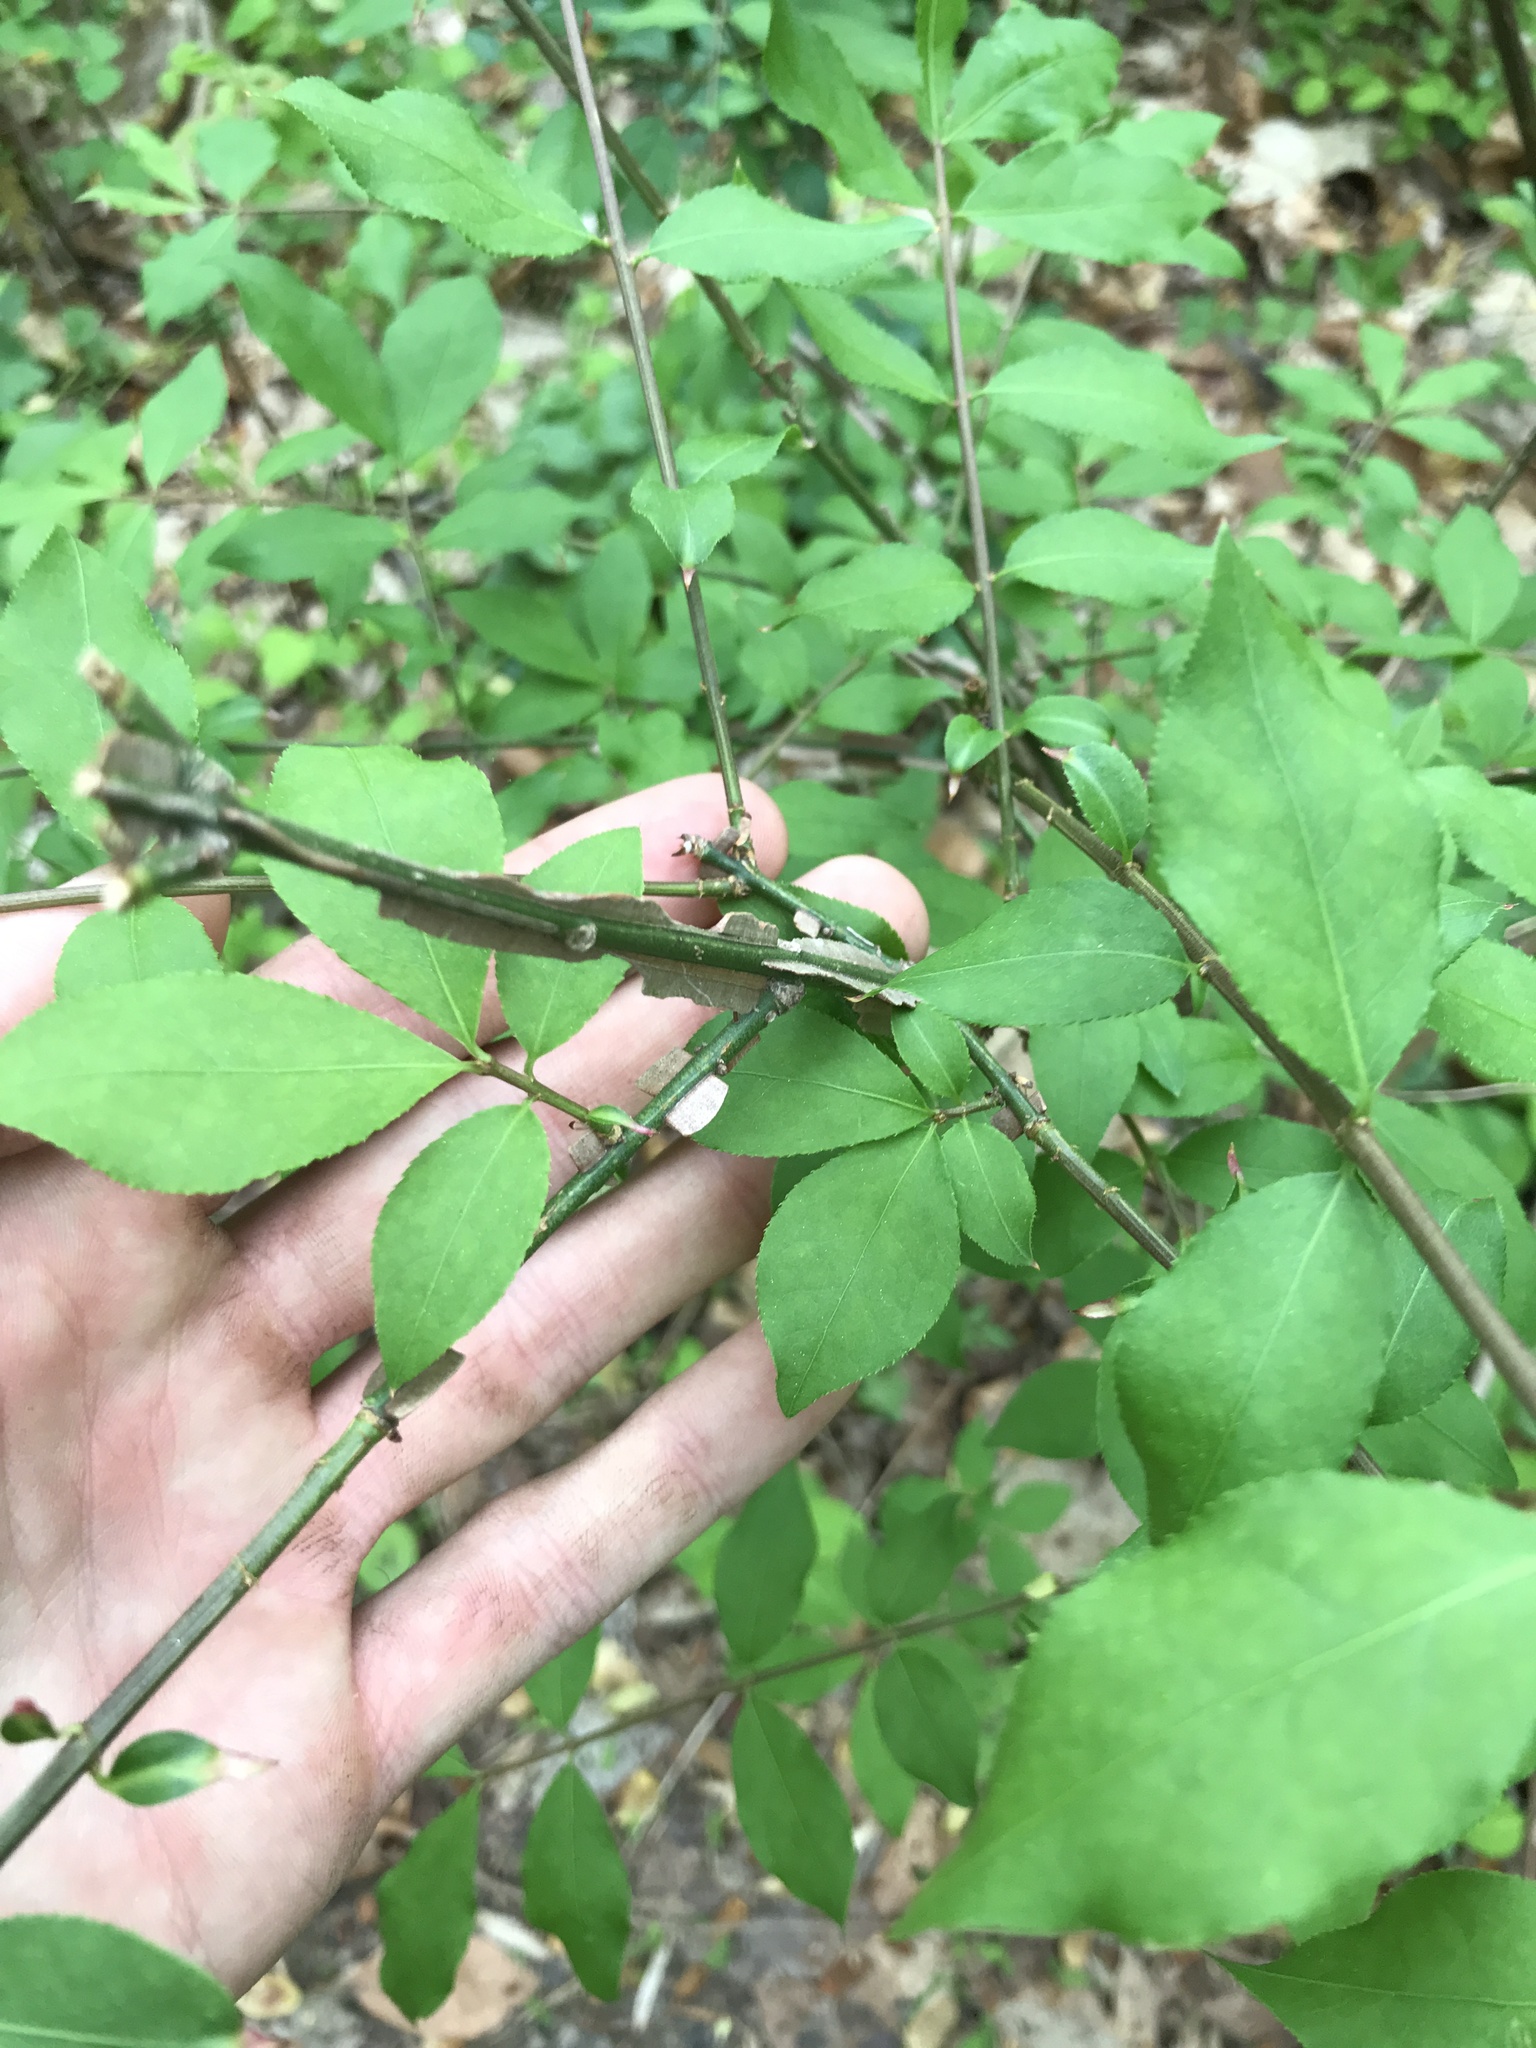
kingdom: Plantae
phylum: Tracheophyta
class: Magnoliopsida
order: Celastrales
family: Celastraceae
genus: Euonymus
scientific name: Euonymus alatus
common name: Winged euonymus
